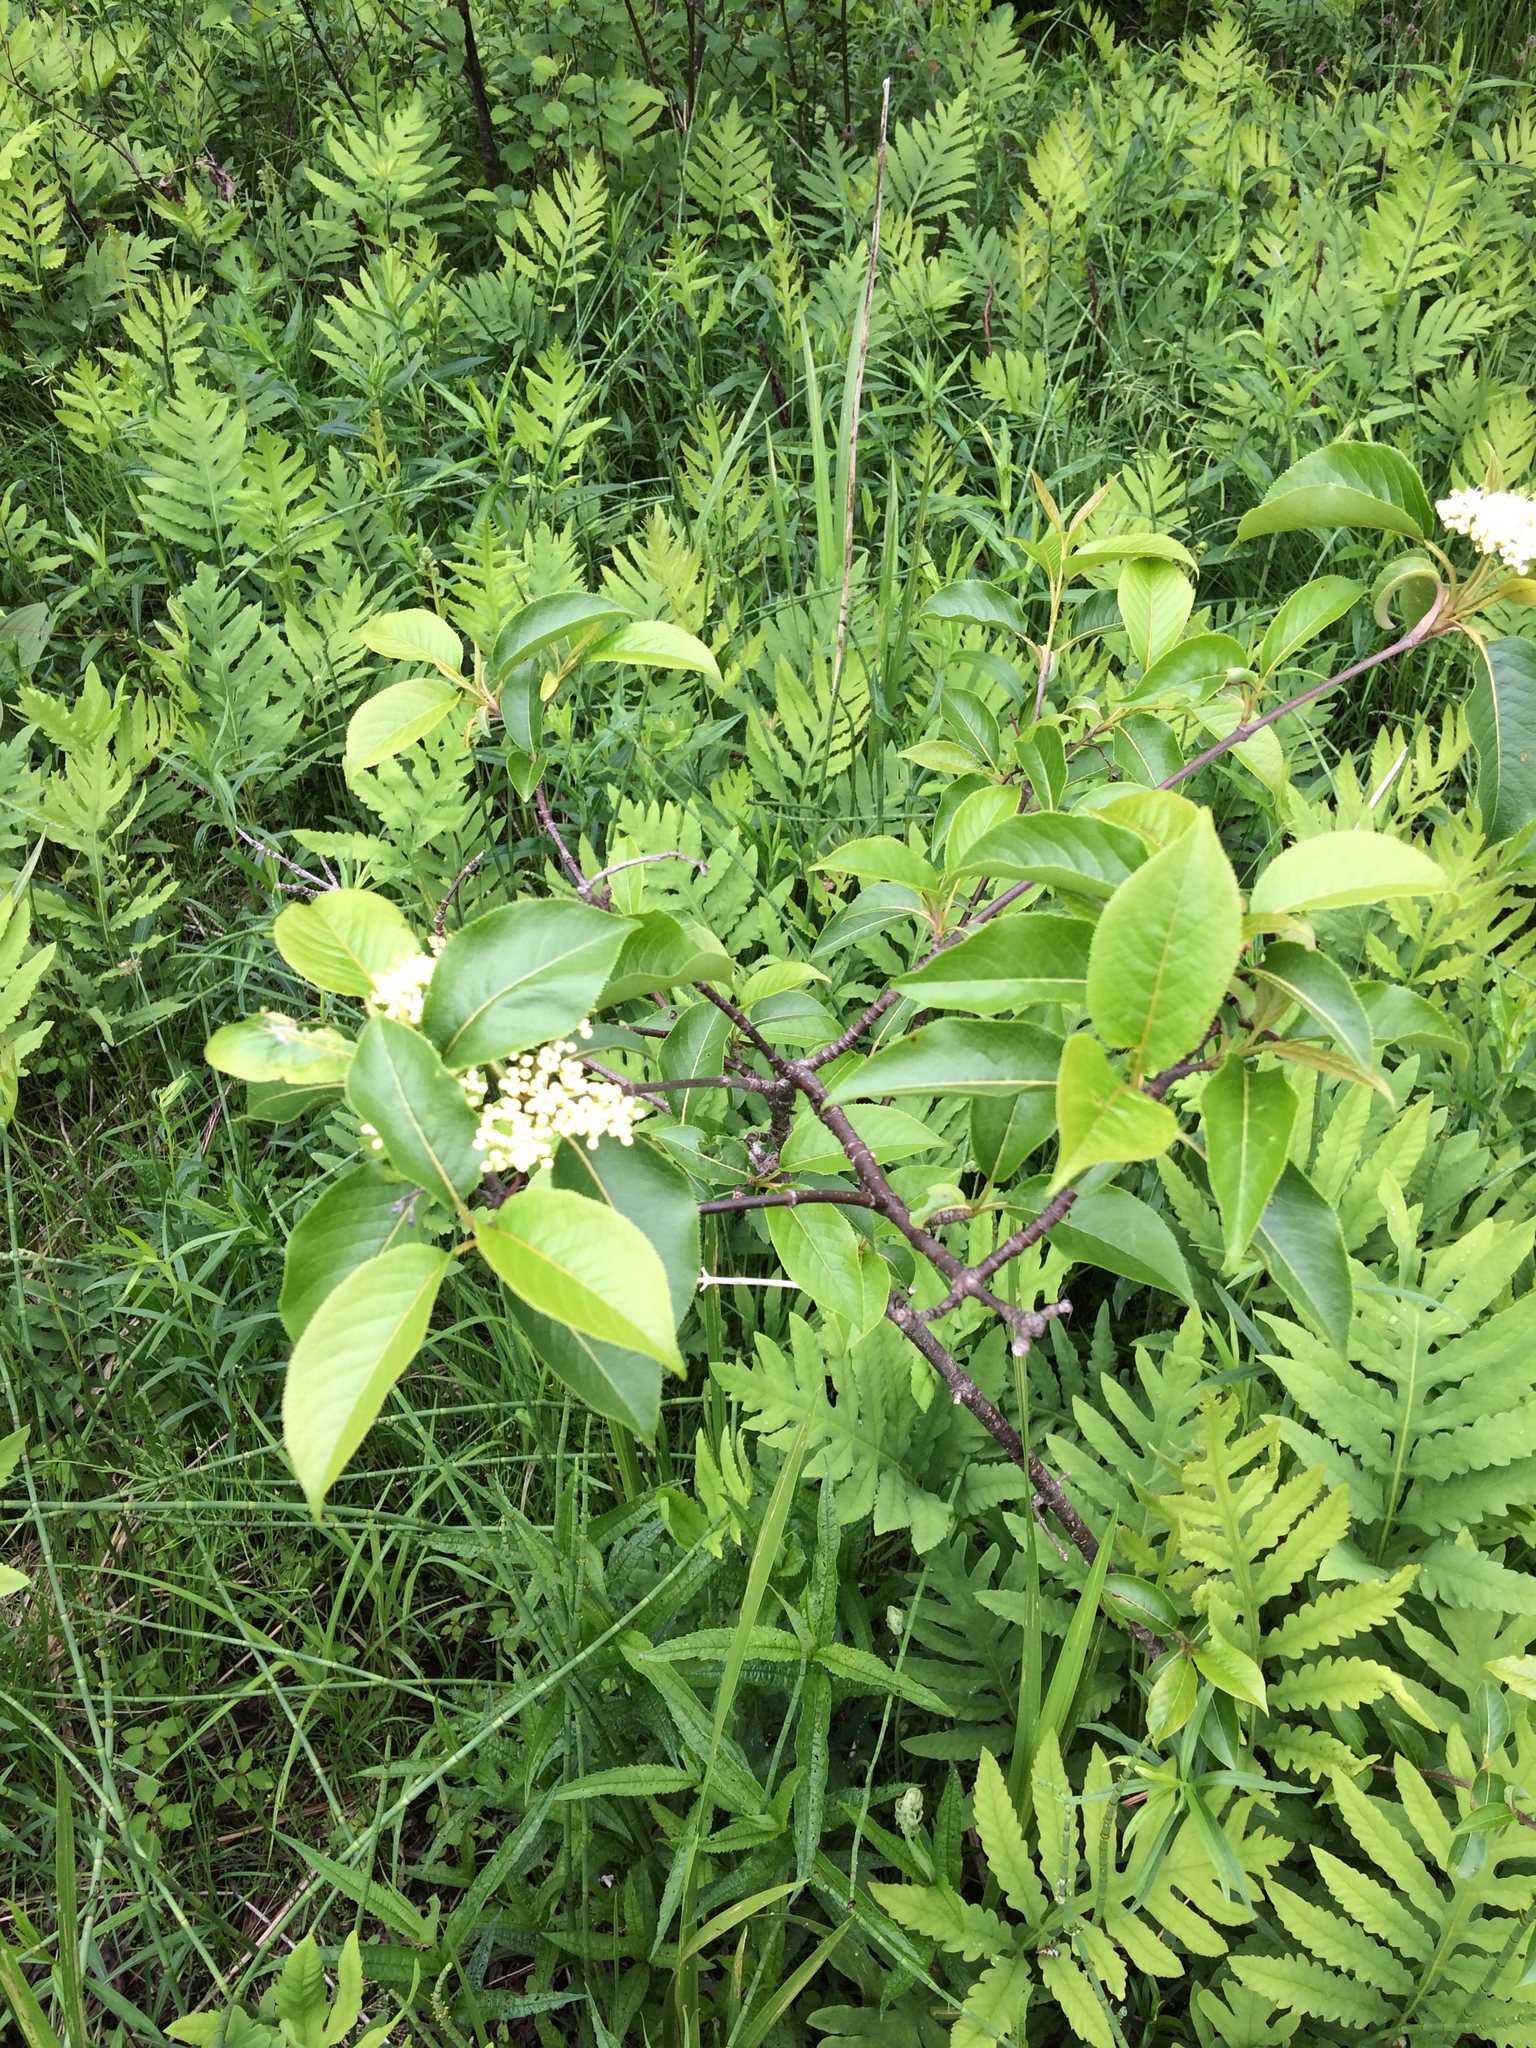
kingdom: Plantae
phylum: Tracheophyta
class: Magnoliopsida
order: Dipsacales
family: Viburnaceae
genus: Viburnum
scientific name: Viburnum lentago
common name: Black haw
